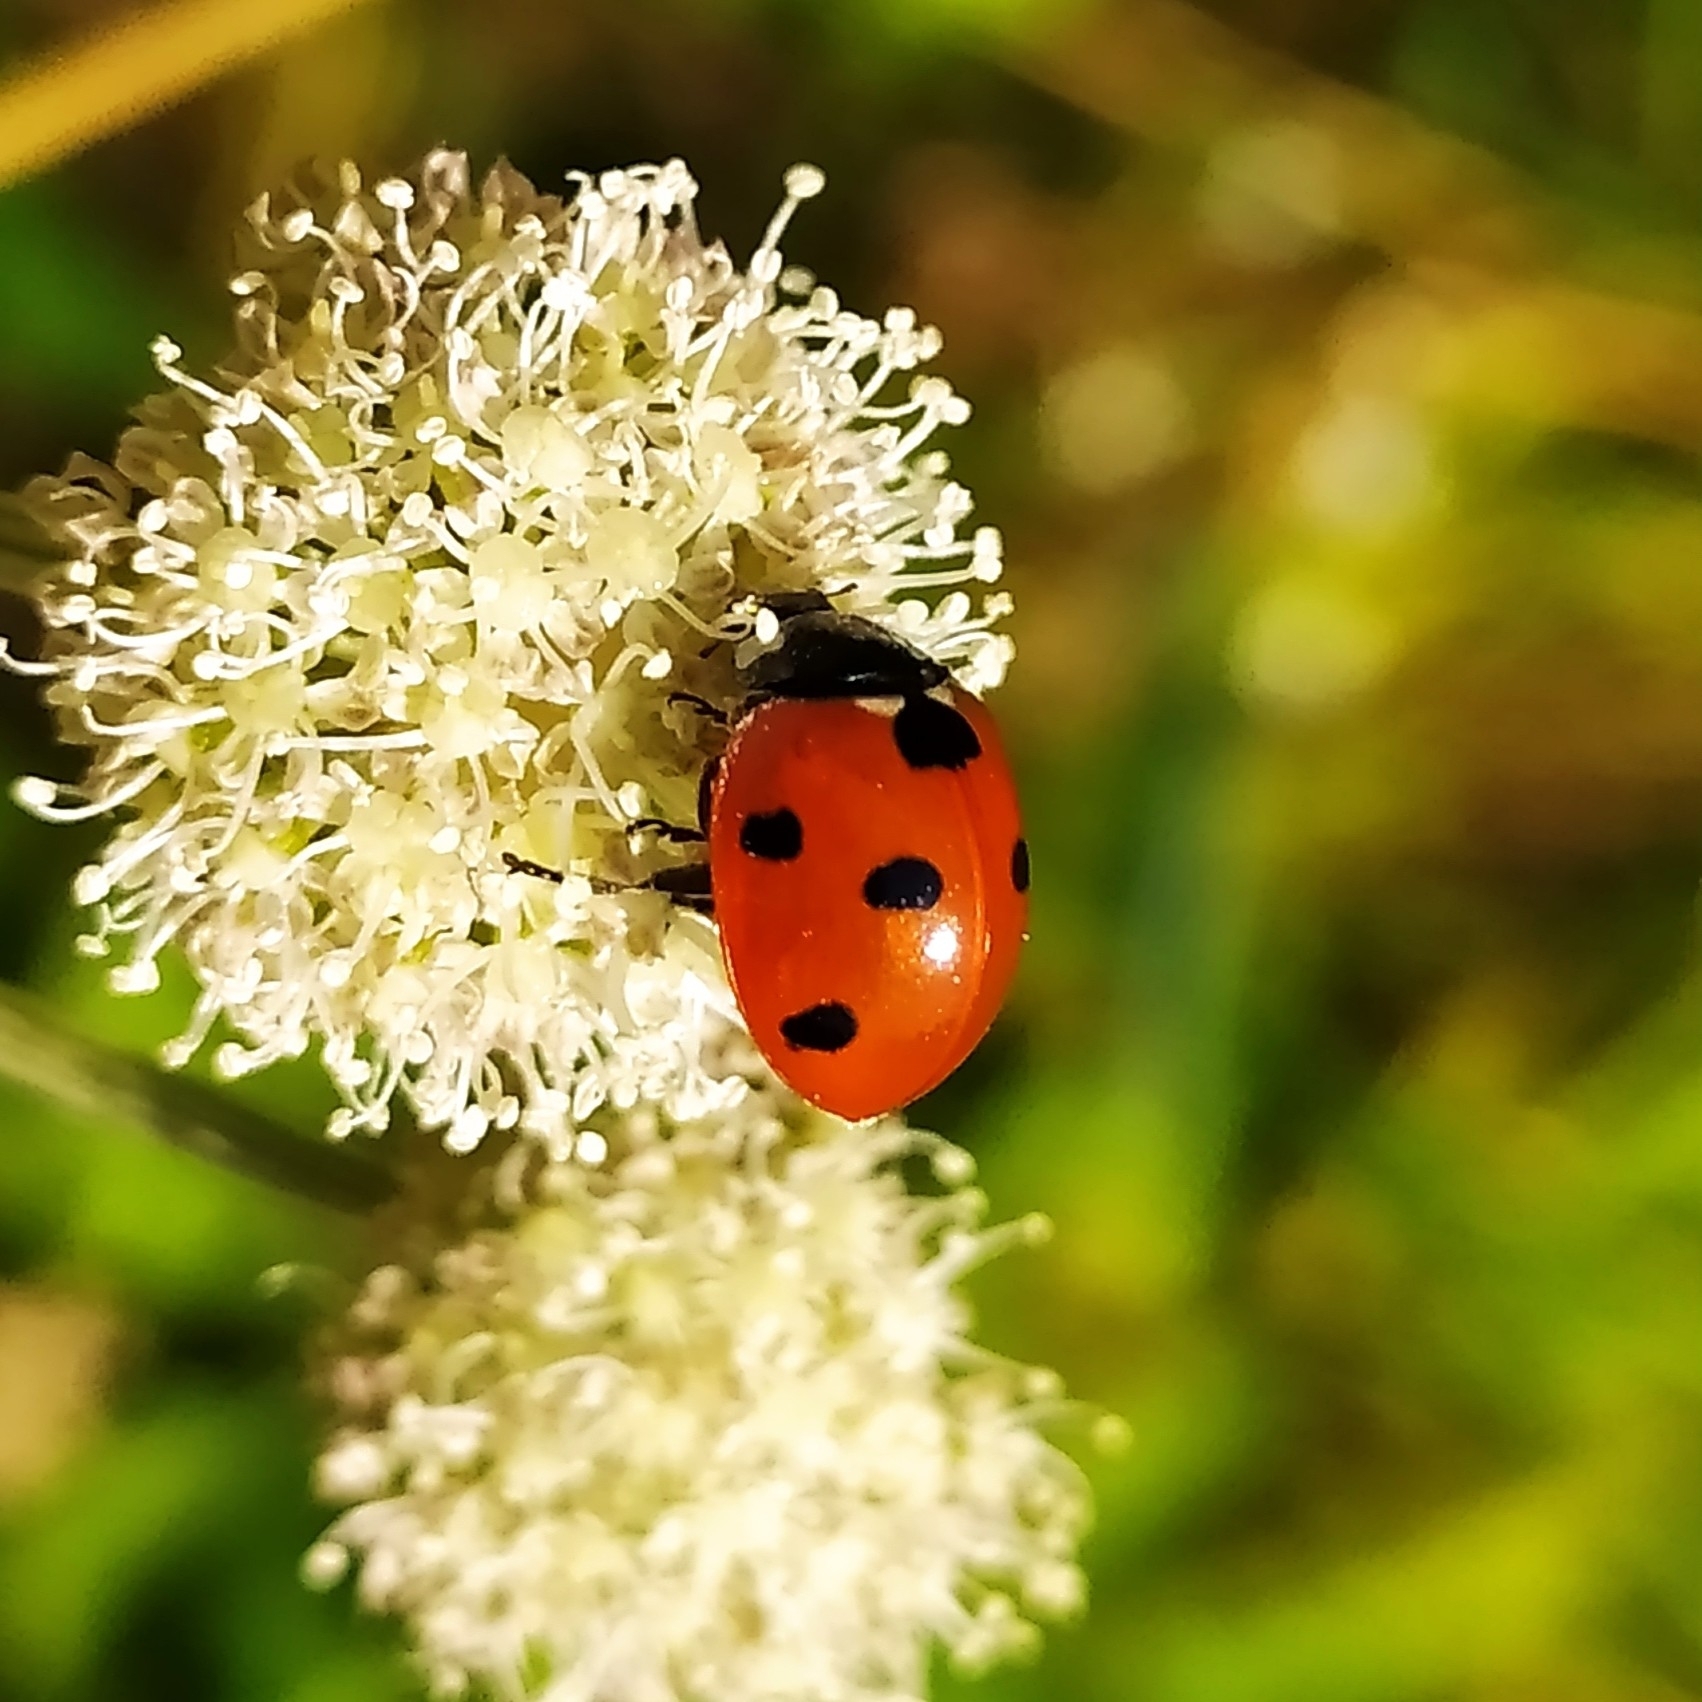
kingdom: Animalia
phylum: Arthropoda
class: Insecta
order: Coleoptera
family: Coccinellidae
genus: Coccinella
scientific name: Coccinella septempunctata
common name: Sevenspotted lady beetle
